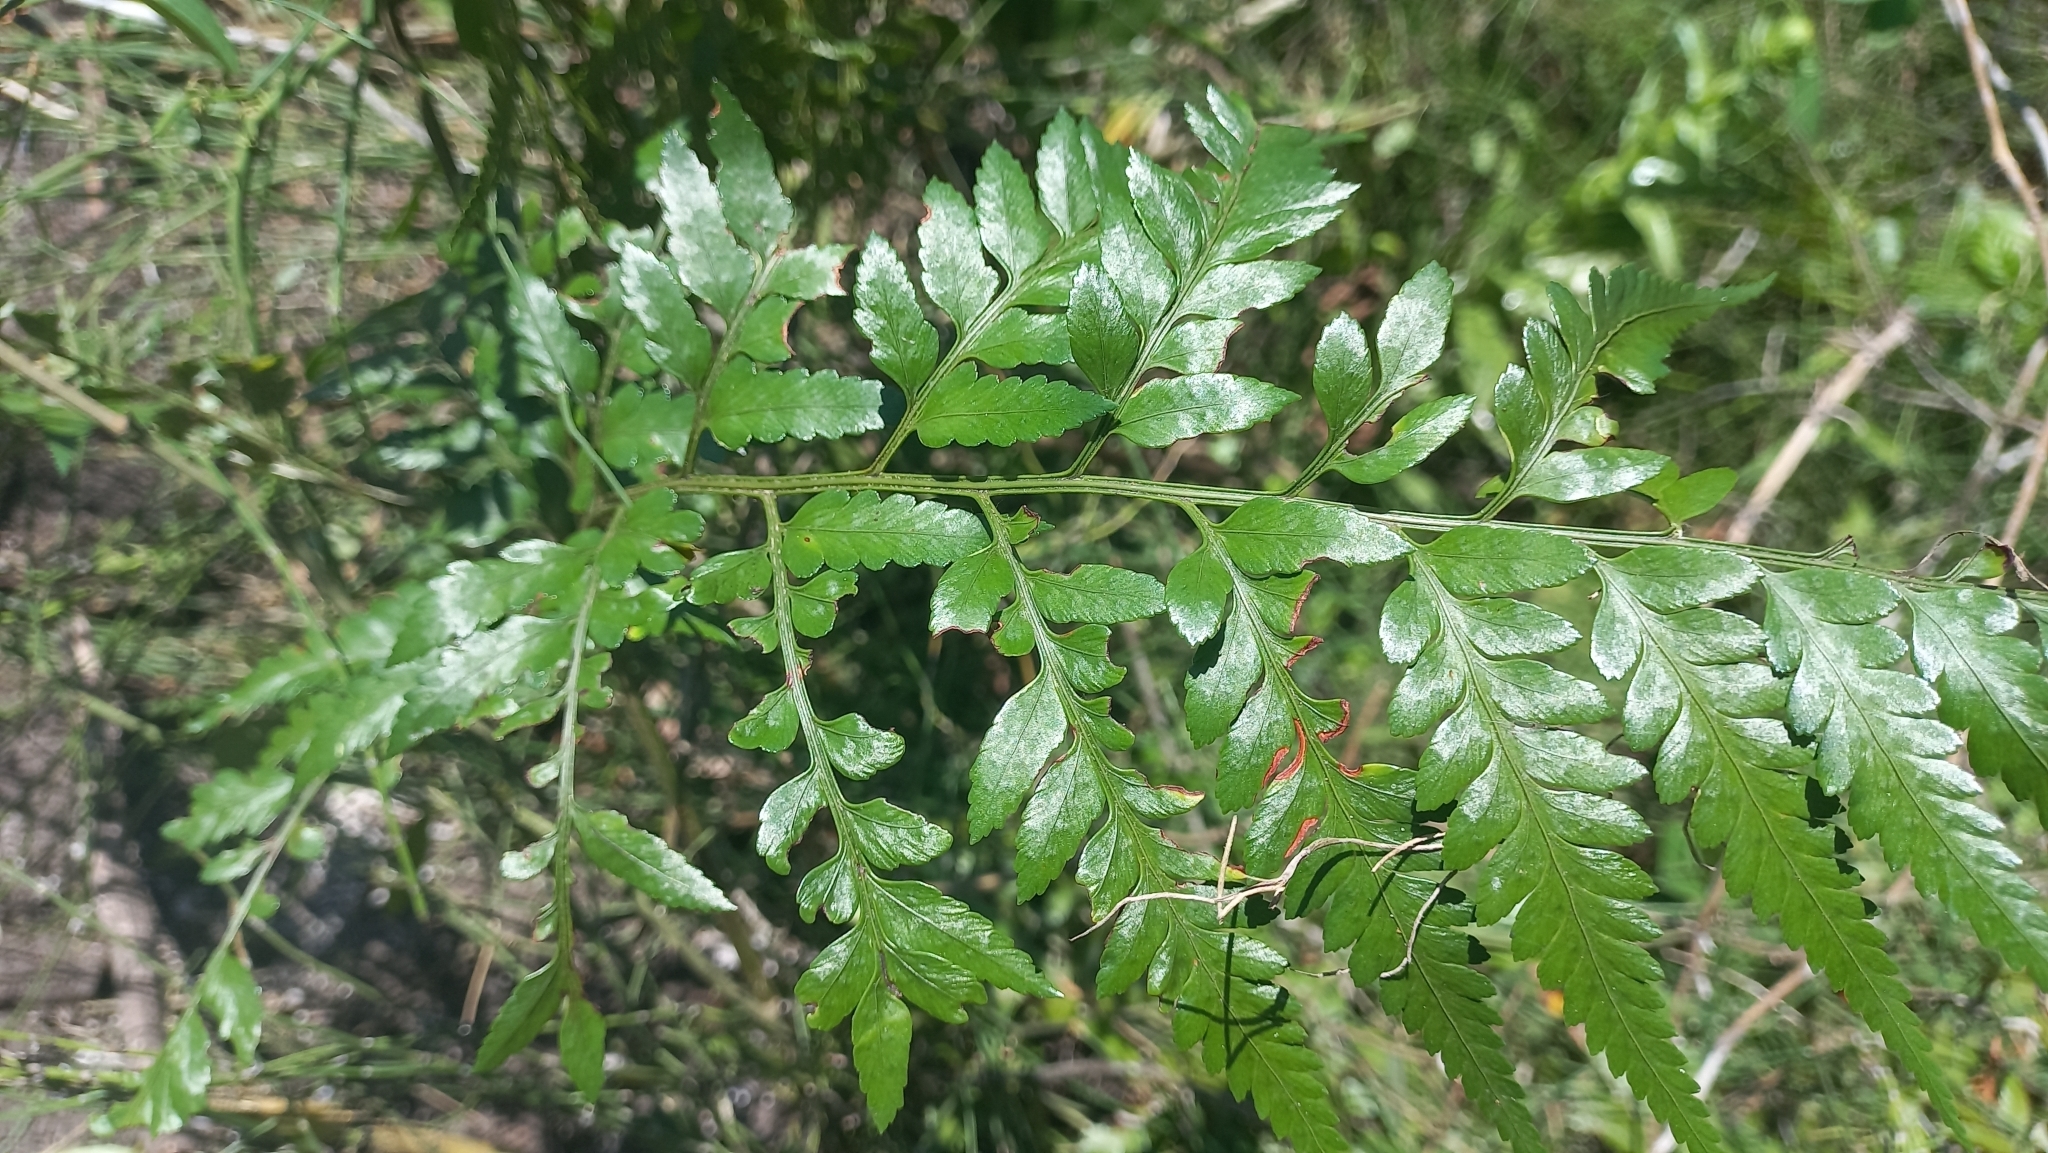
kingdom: Plantae
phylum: Tracheophyta
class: Polypodiopsida
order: Polypodiales
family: Dryopteridaceae
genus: Rumohra
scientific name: Rumohra adiantiformis
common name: Leather fern
